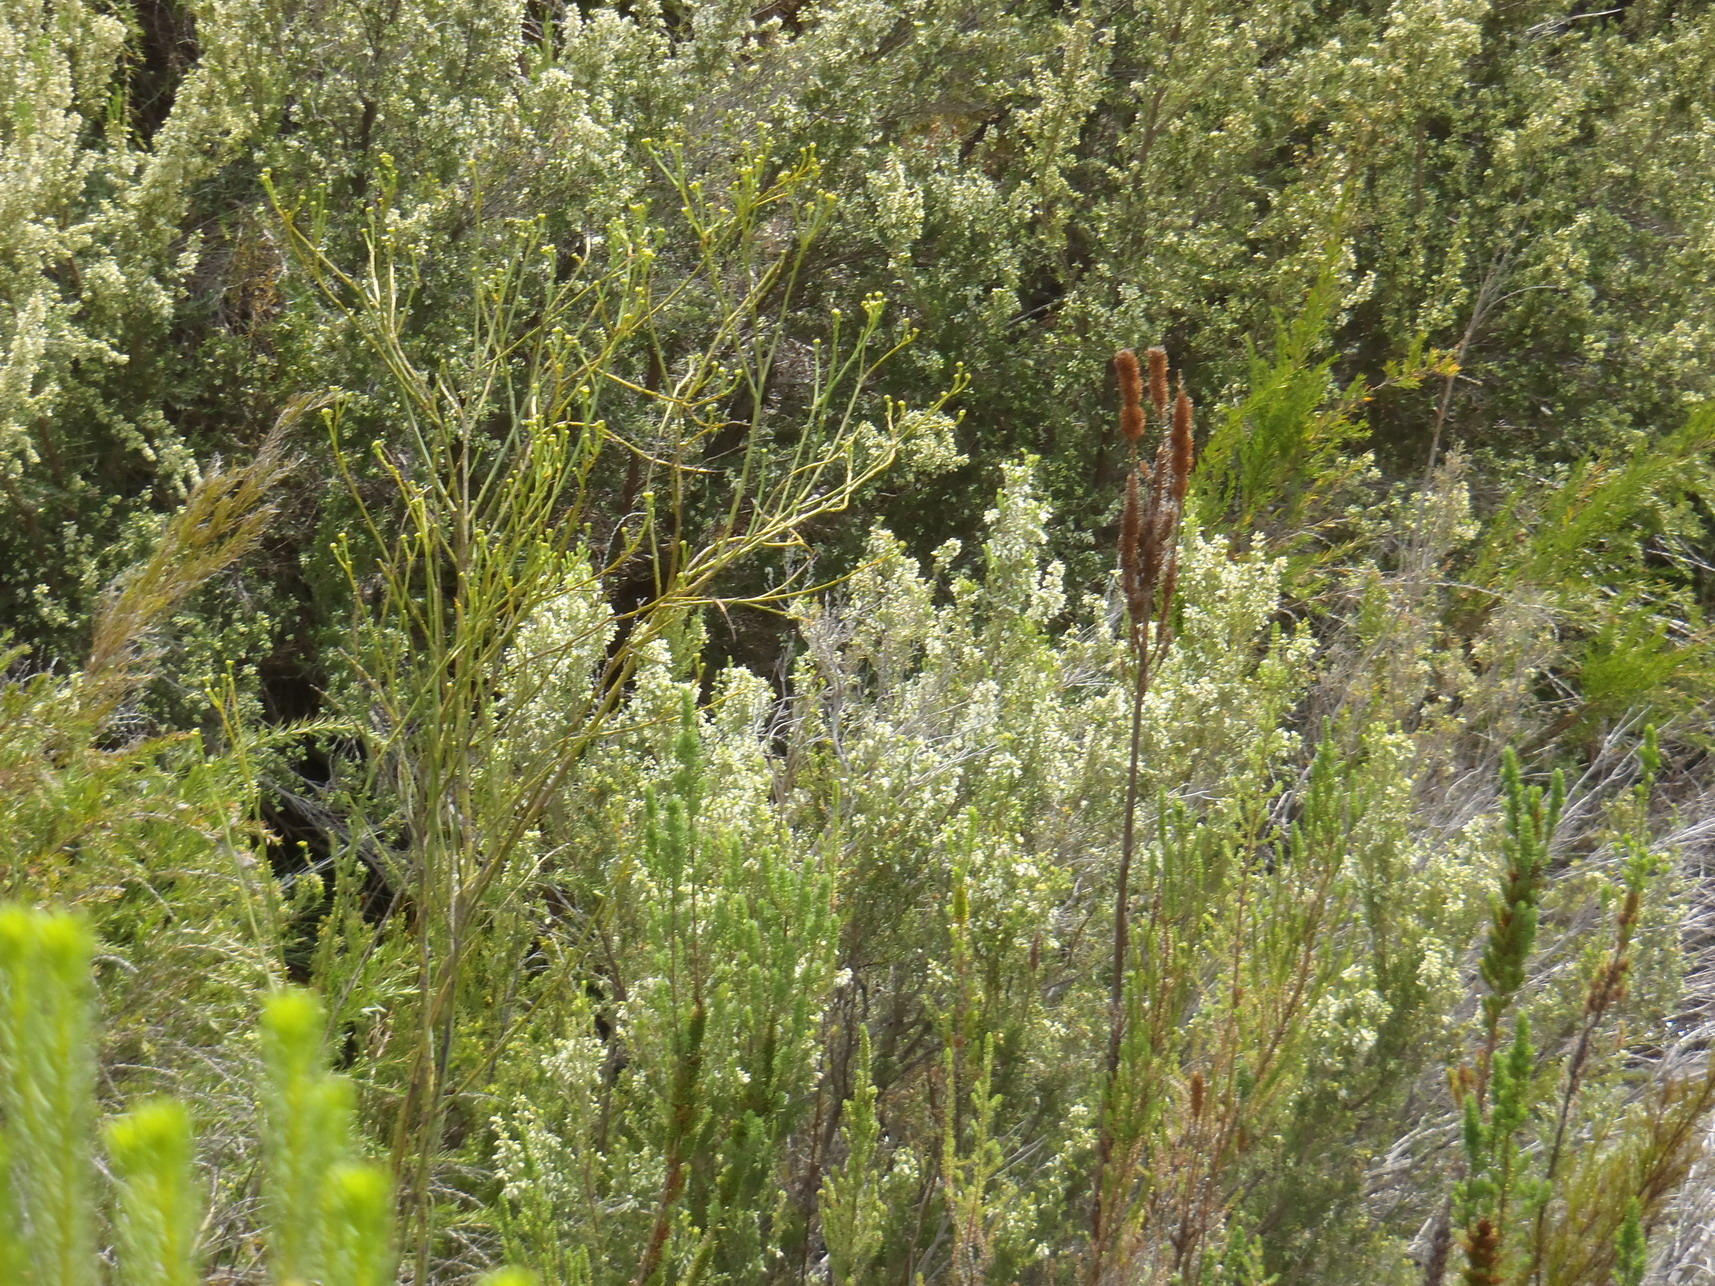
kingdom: Plantae
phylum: Tracheophyta
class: Magnoliopsida
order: Ericales
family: Ericaceae
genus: Erica
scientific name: Erica caffra
